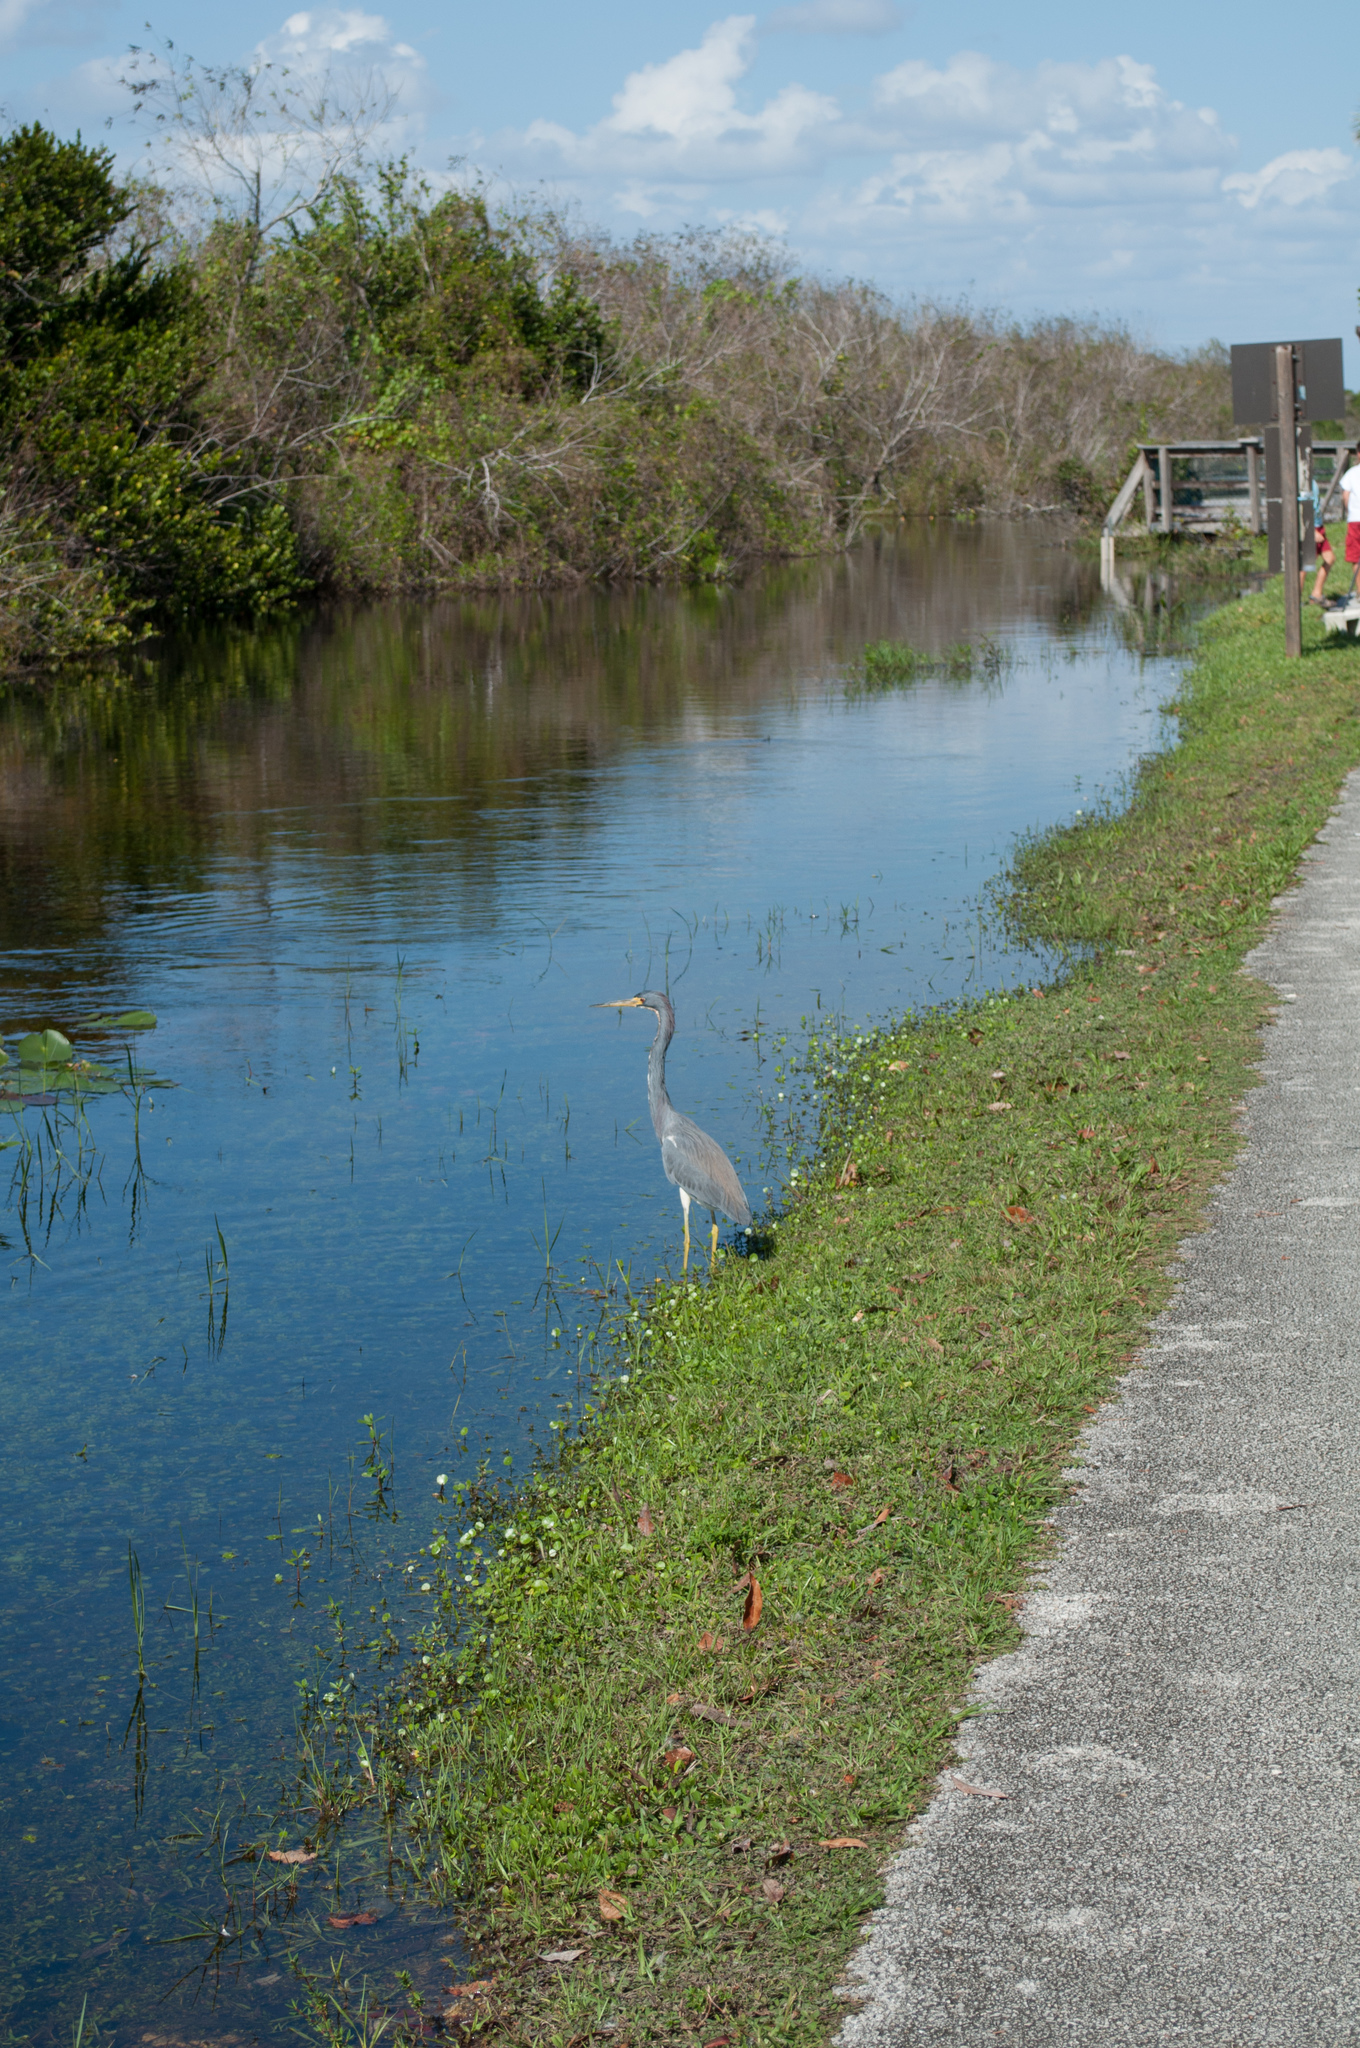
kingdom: Animalia
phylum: Chordata
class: Aves
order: Pelecaniformes
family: Ardeidae
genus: Egretta
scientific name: Egretta tricolor
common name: Tricolored heron
